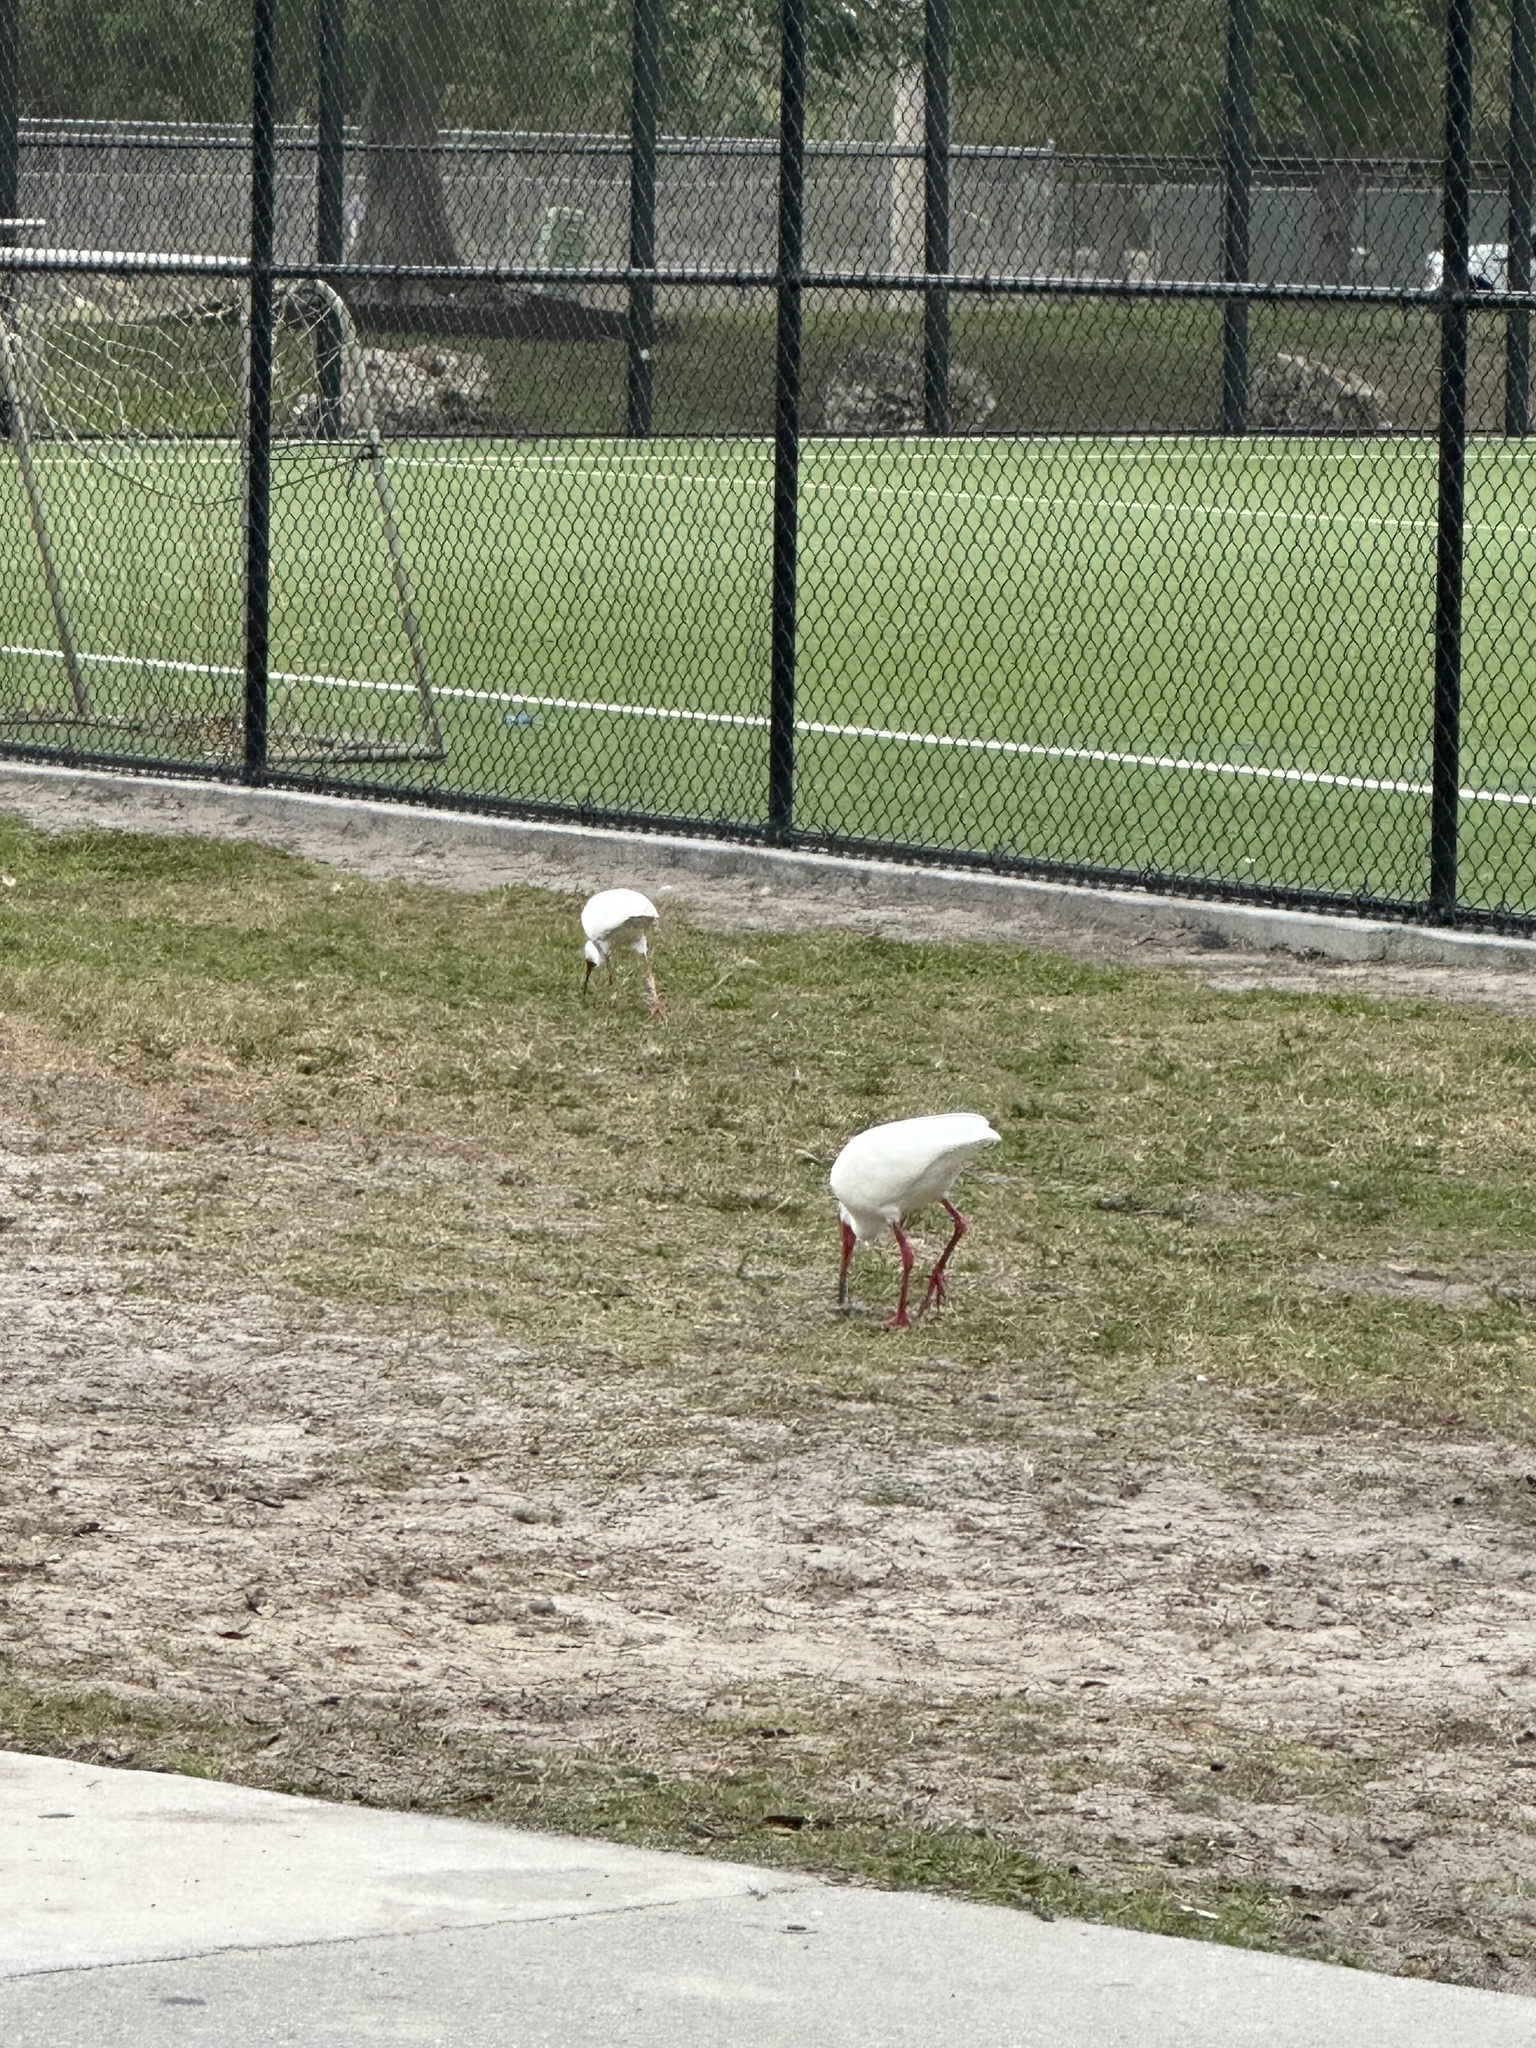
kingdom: Animalia
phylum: Chordata
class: Aves
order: Pelecaniformes
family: Threskiornithidae
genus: Eudocimus
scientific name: Eudocimus albus
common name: White ibis
